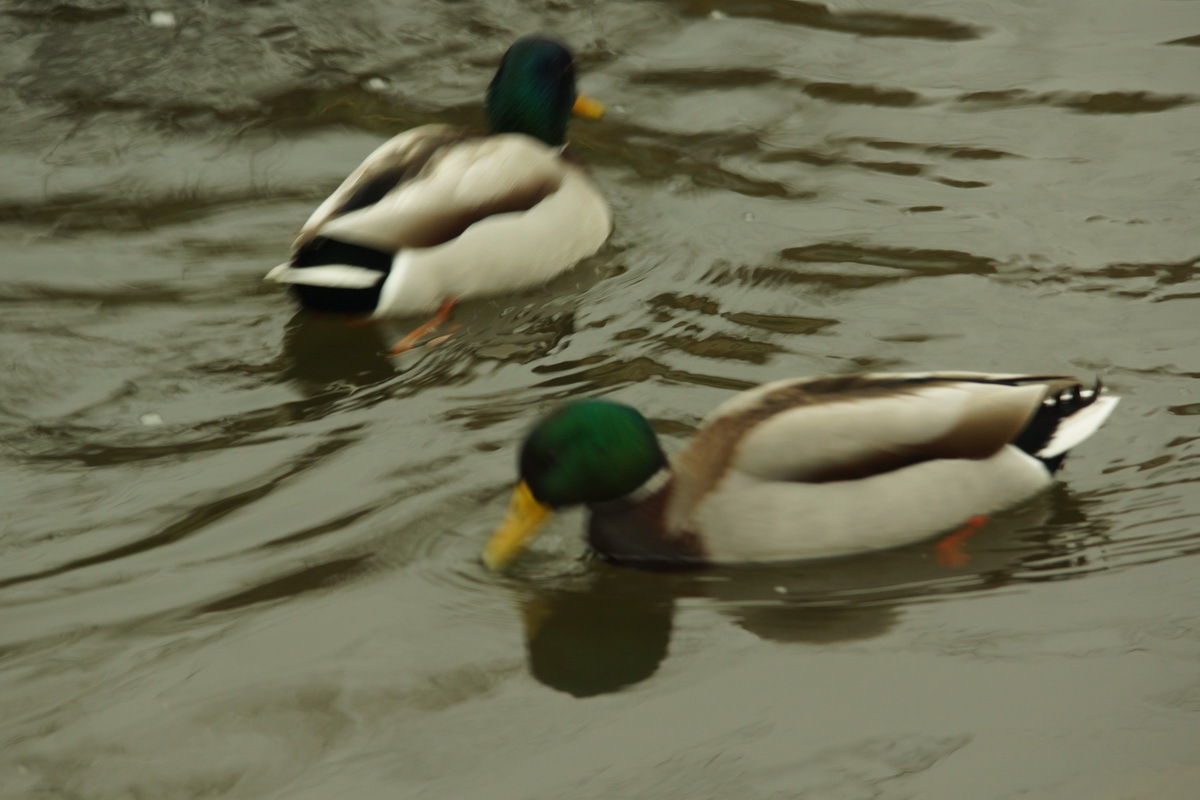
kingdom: Animalia
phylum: Chordata
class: Aves
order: Anseriformes
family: Anatidae
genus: Anas
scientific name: Anas platyrhynchos
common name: Mallard
